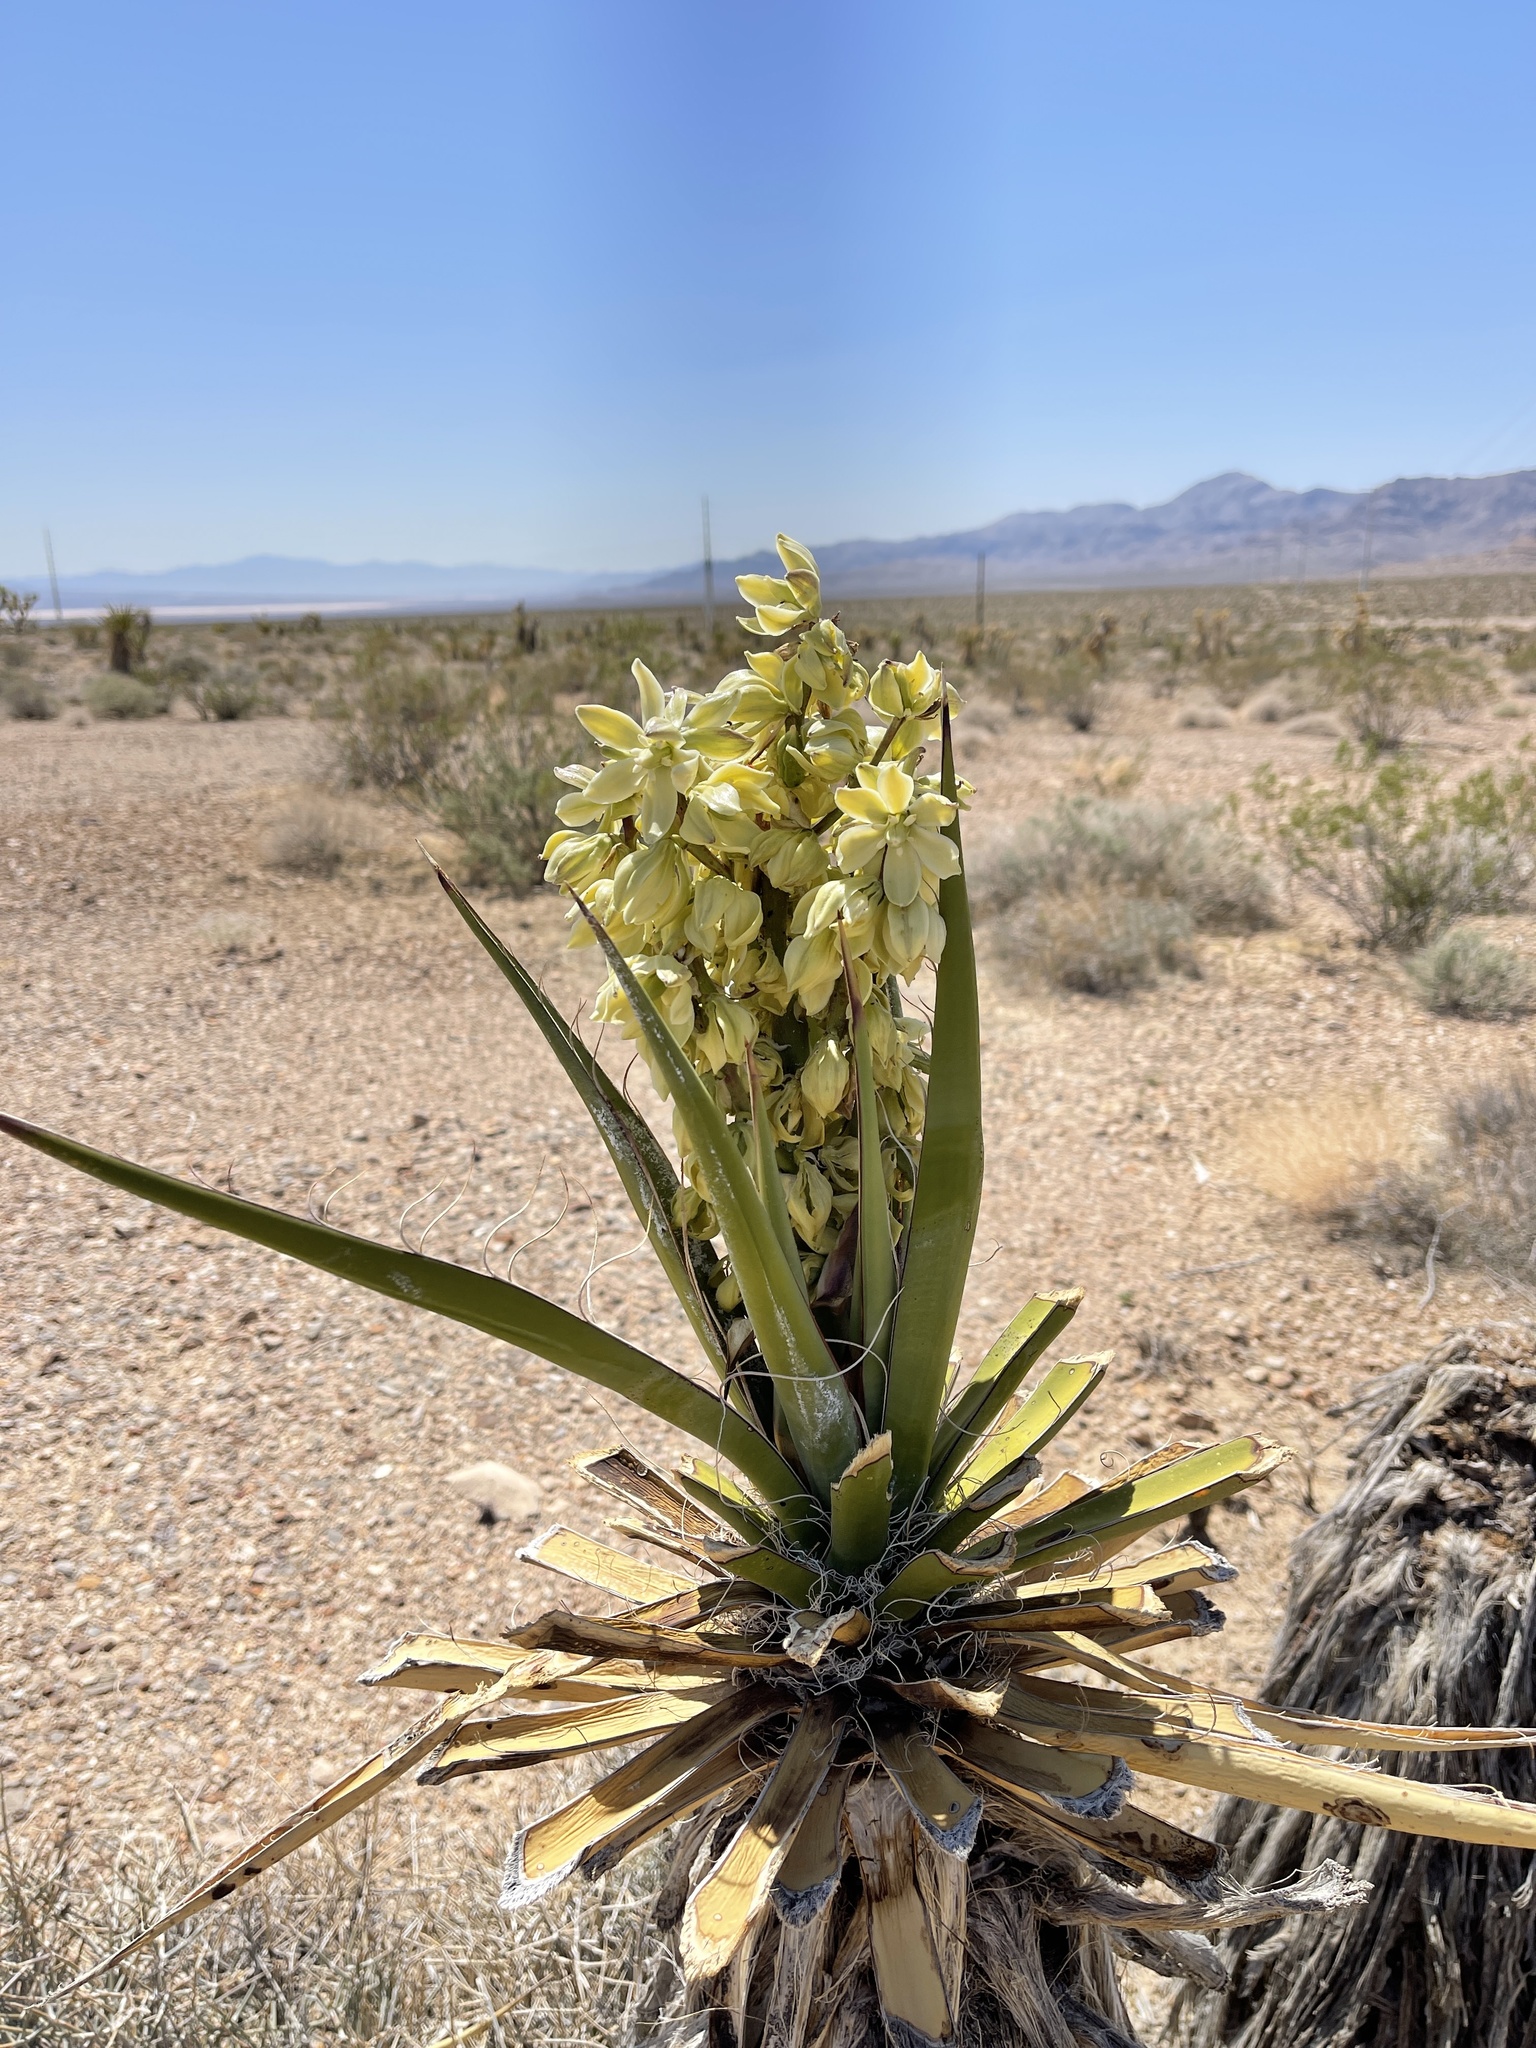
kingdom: Plantae
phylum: Tracheophyta
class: Liliopsida
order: Asparagales
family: Asparagaceae
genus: Yucca
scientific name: Yucca schidigera
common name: Mojave yucca
